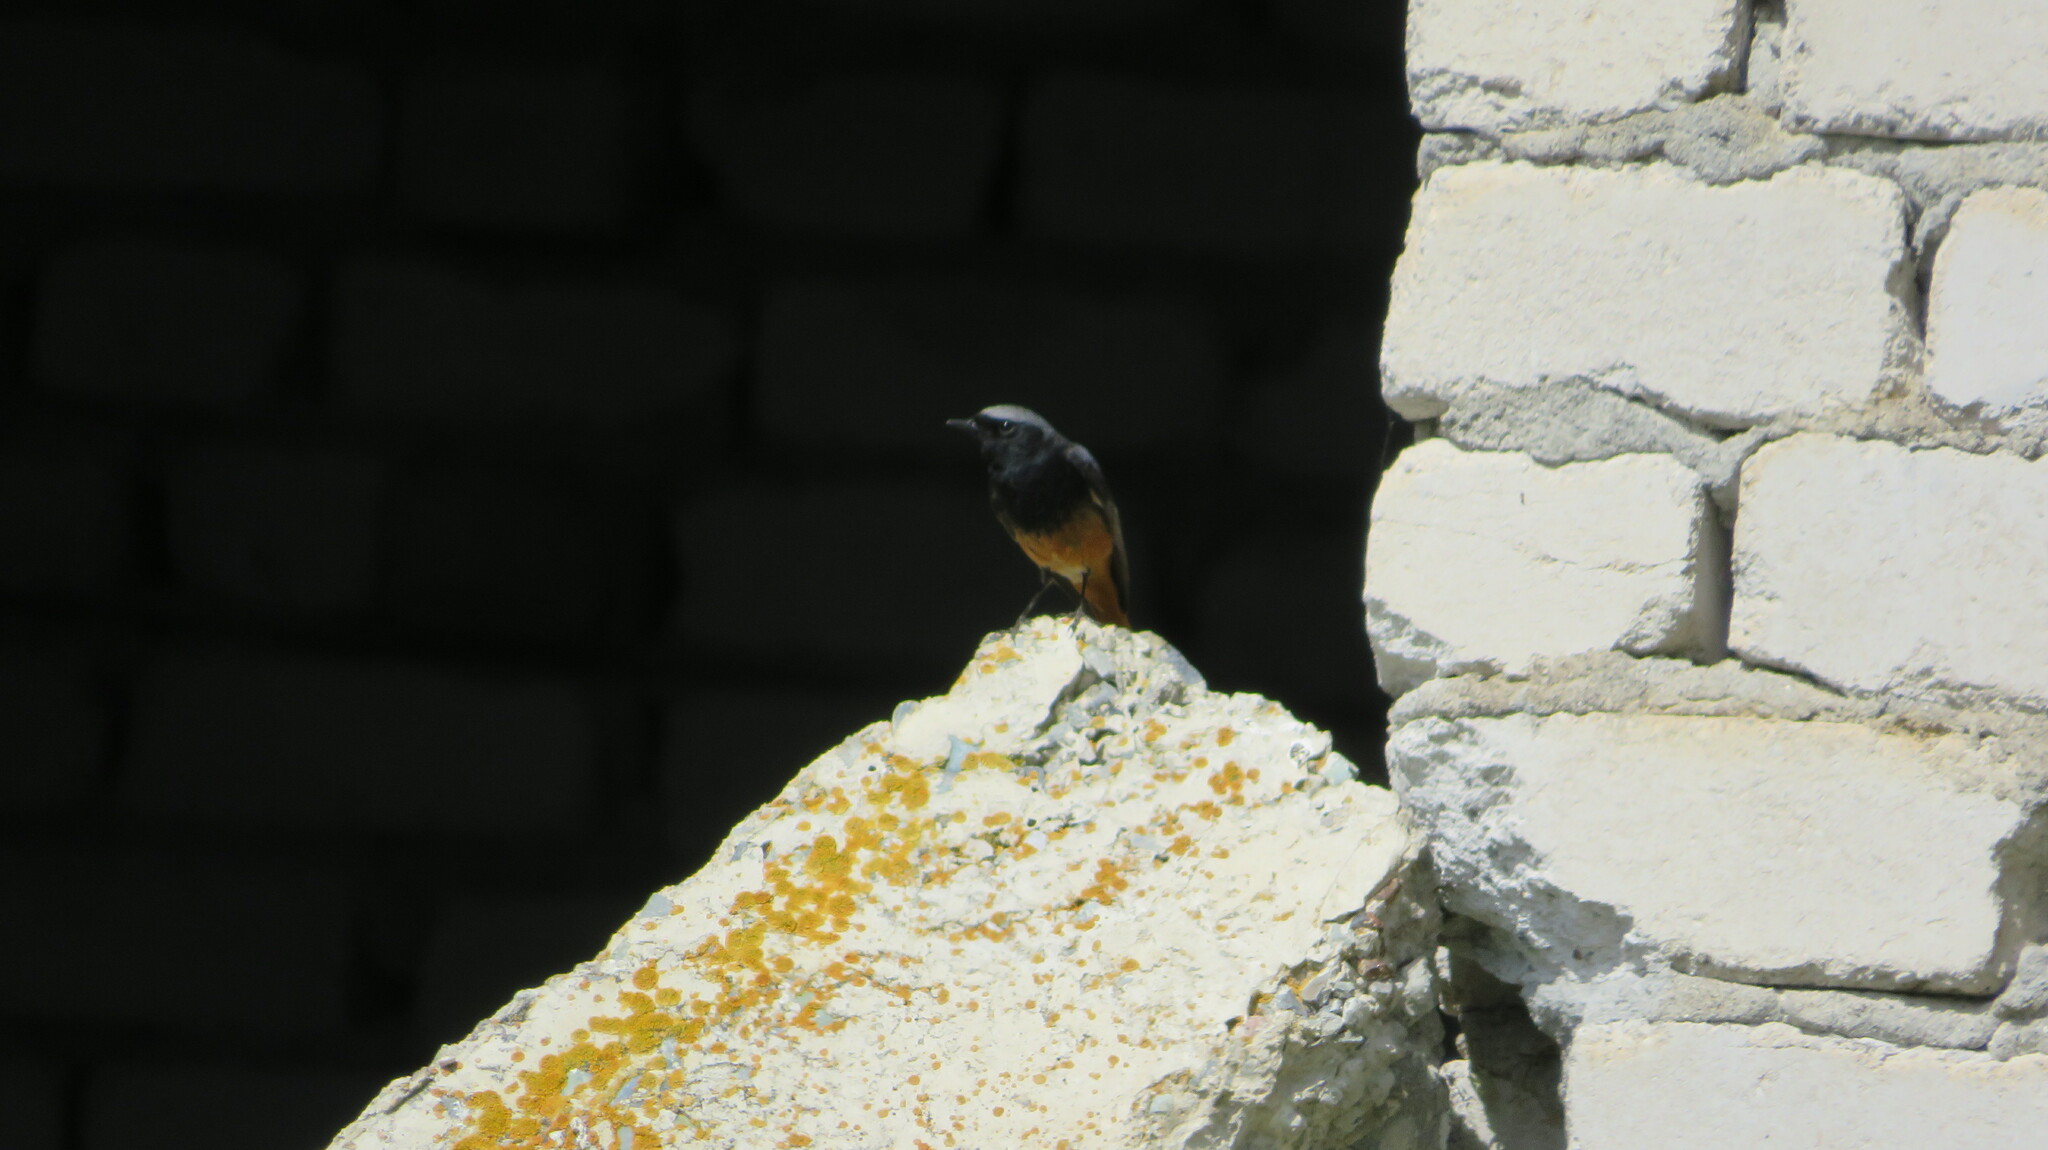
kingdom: Animalia
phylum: Chordata
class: Aves
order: Passeriformes
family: Muscicapidae
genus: Phoenicurus
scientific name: Phoenicurus ochruros
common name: Black redstart
